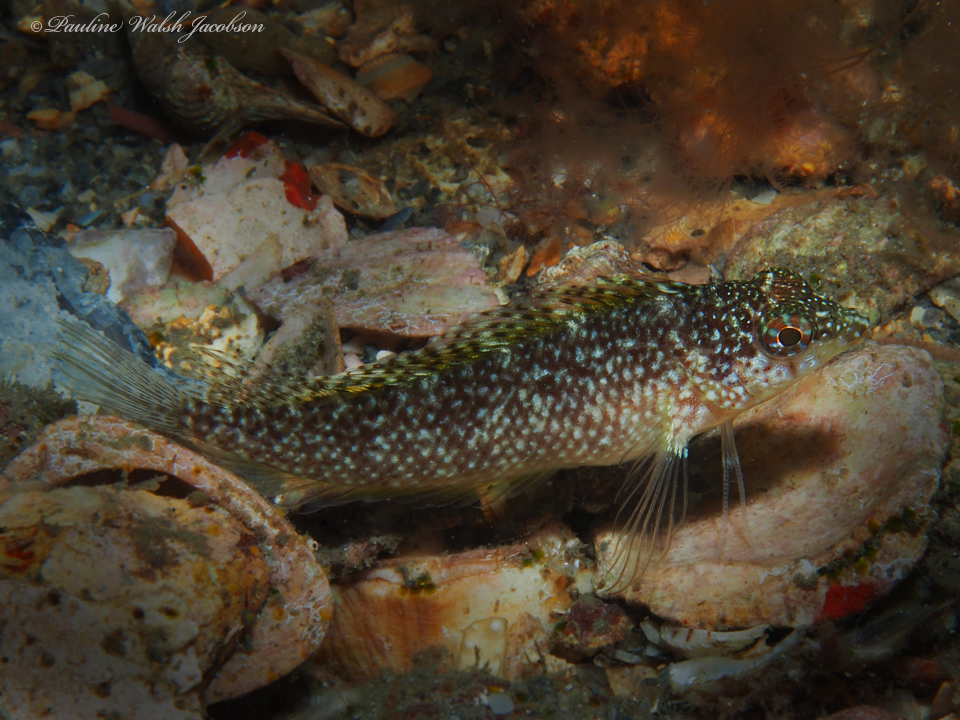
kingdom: Animalia
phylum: Chordata
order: Perciformes
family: Labrisomidae
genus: Malacoctenus
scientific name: Malacoctenus macropus
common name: Rosy blenny
